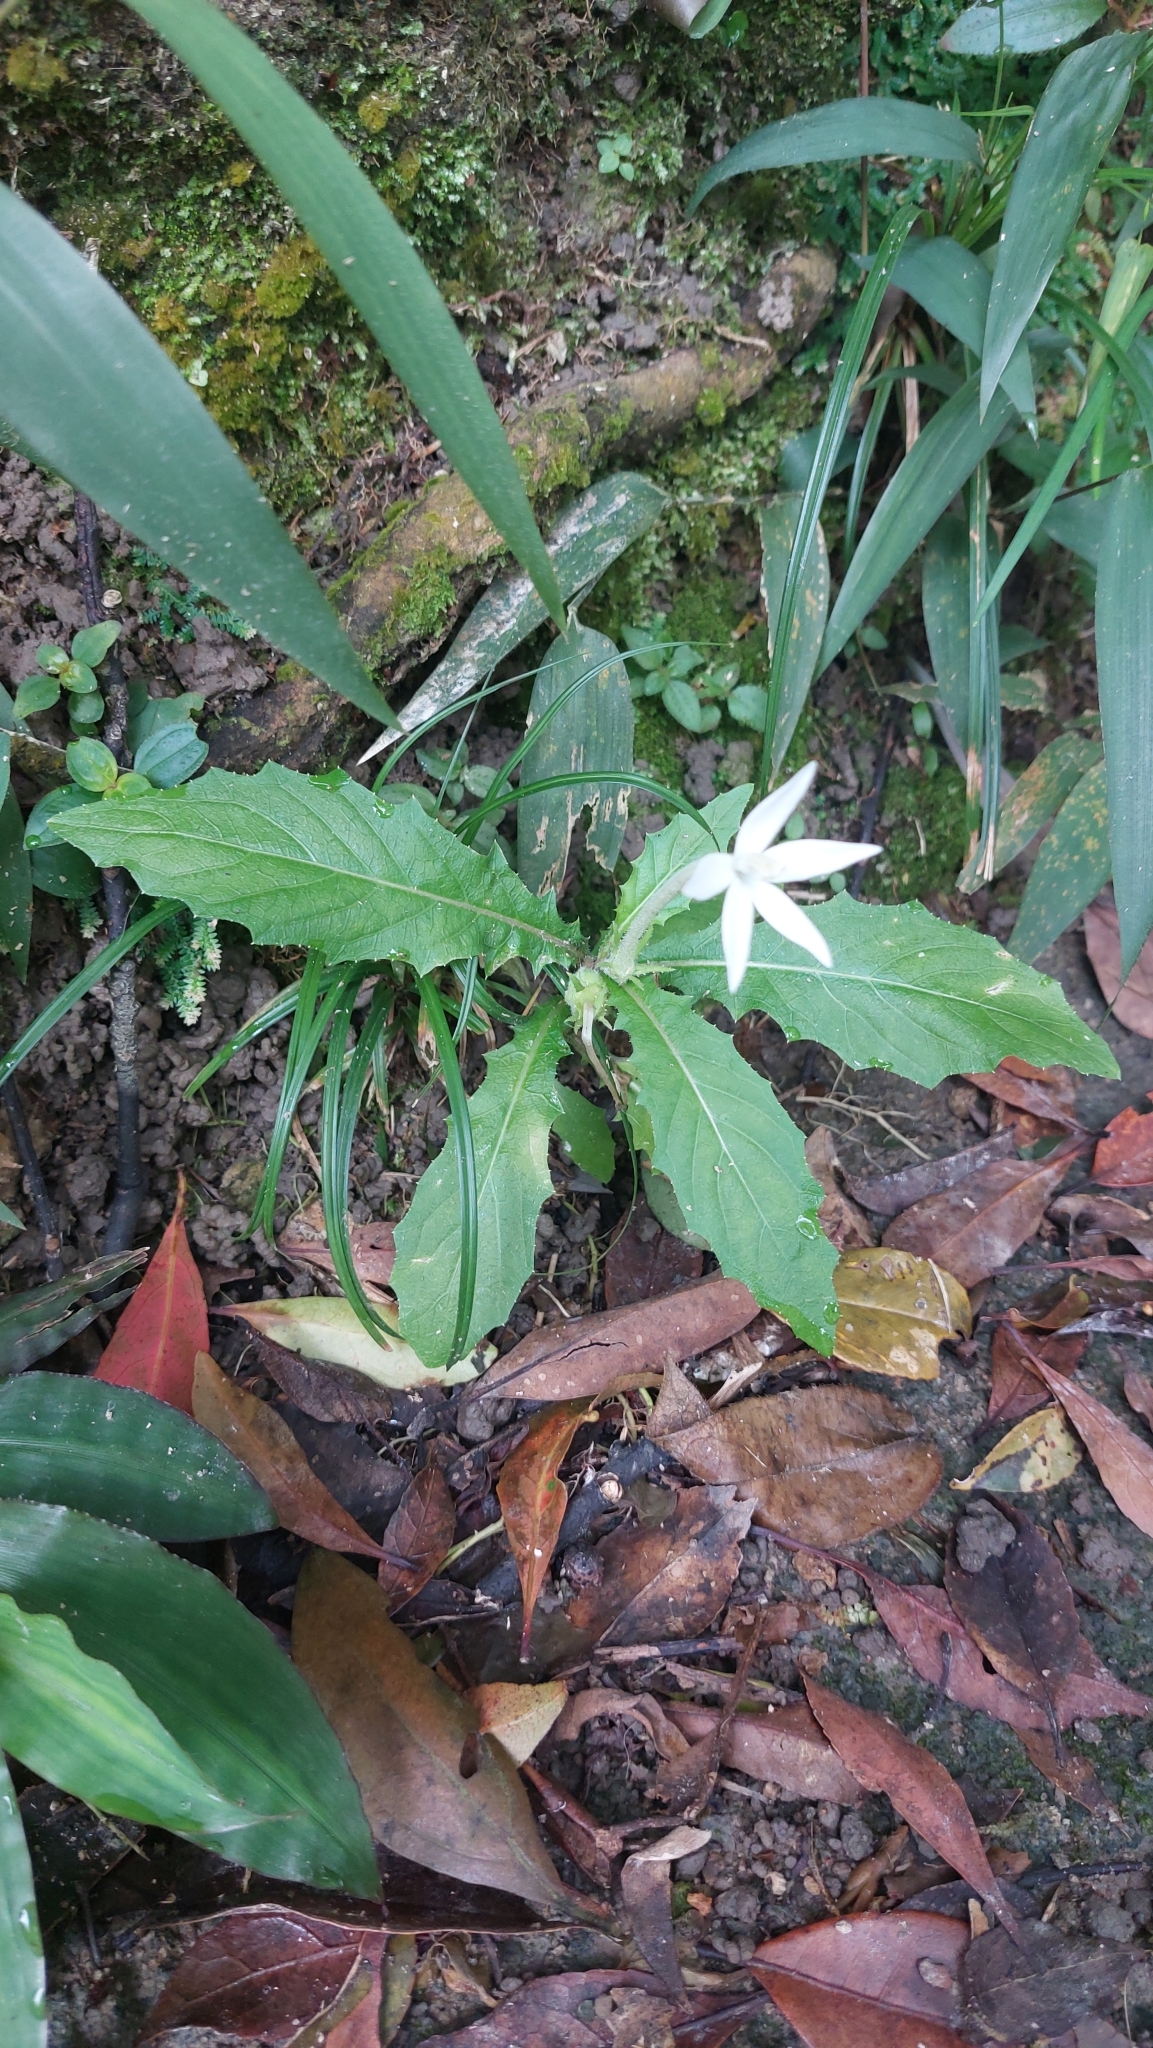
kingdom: Plantae
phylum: Tracheophyta
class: Magnoliopsida
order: Asterales
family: Campanulaceae
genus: Hippobroma
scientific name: Hippobroma longiflora
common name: Madamfate
